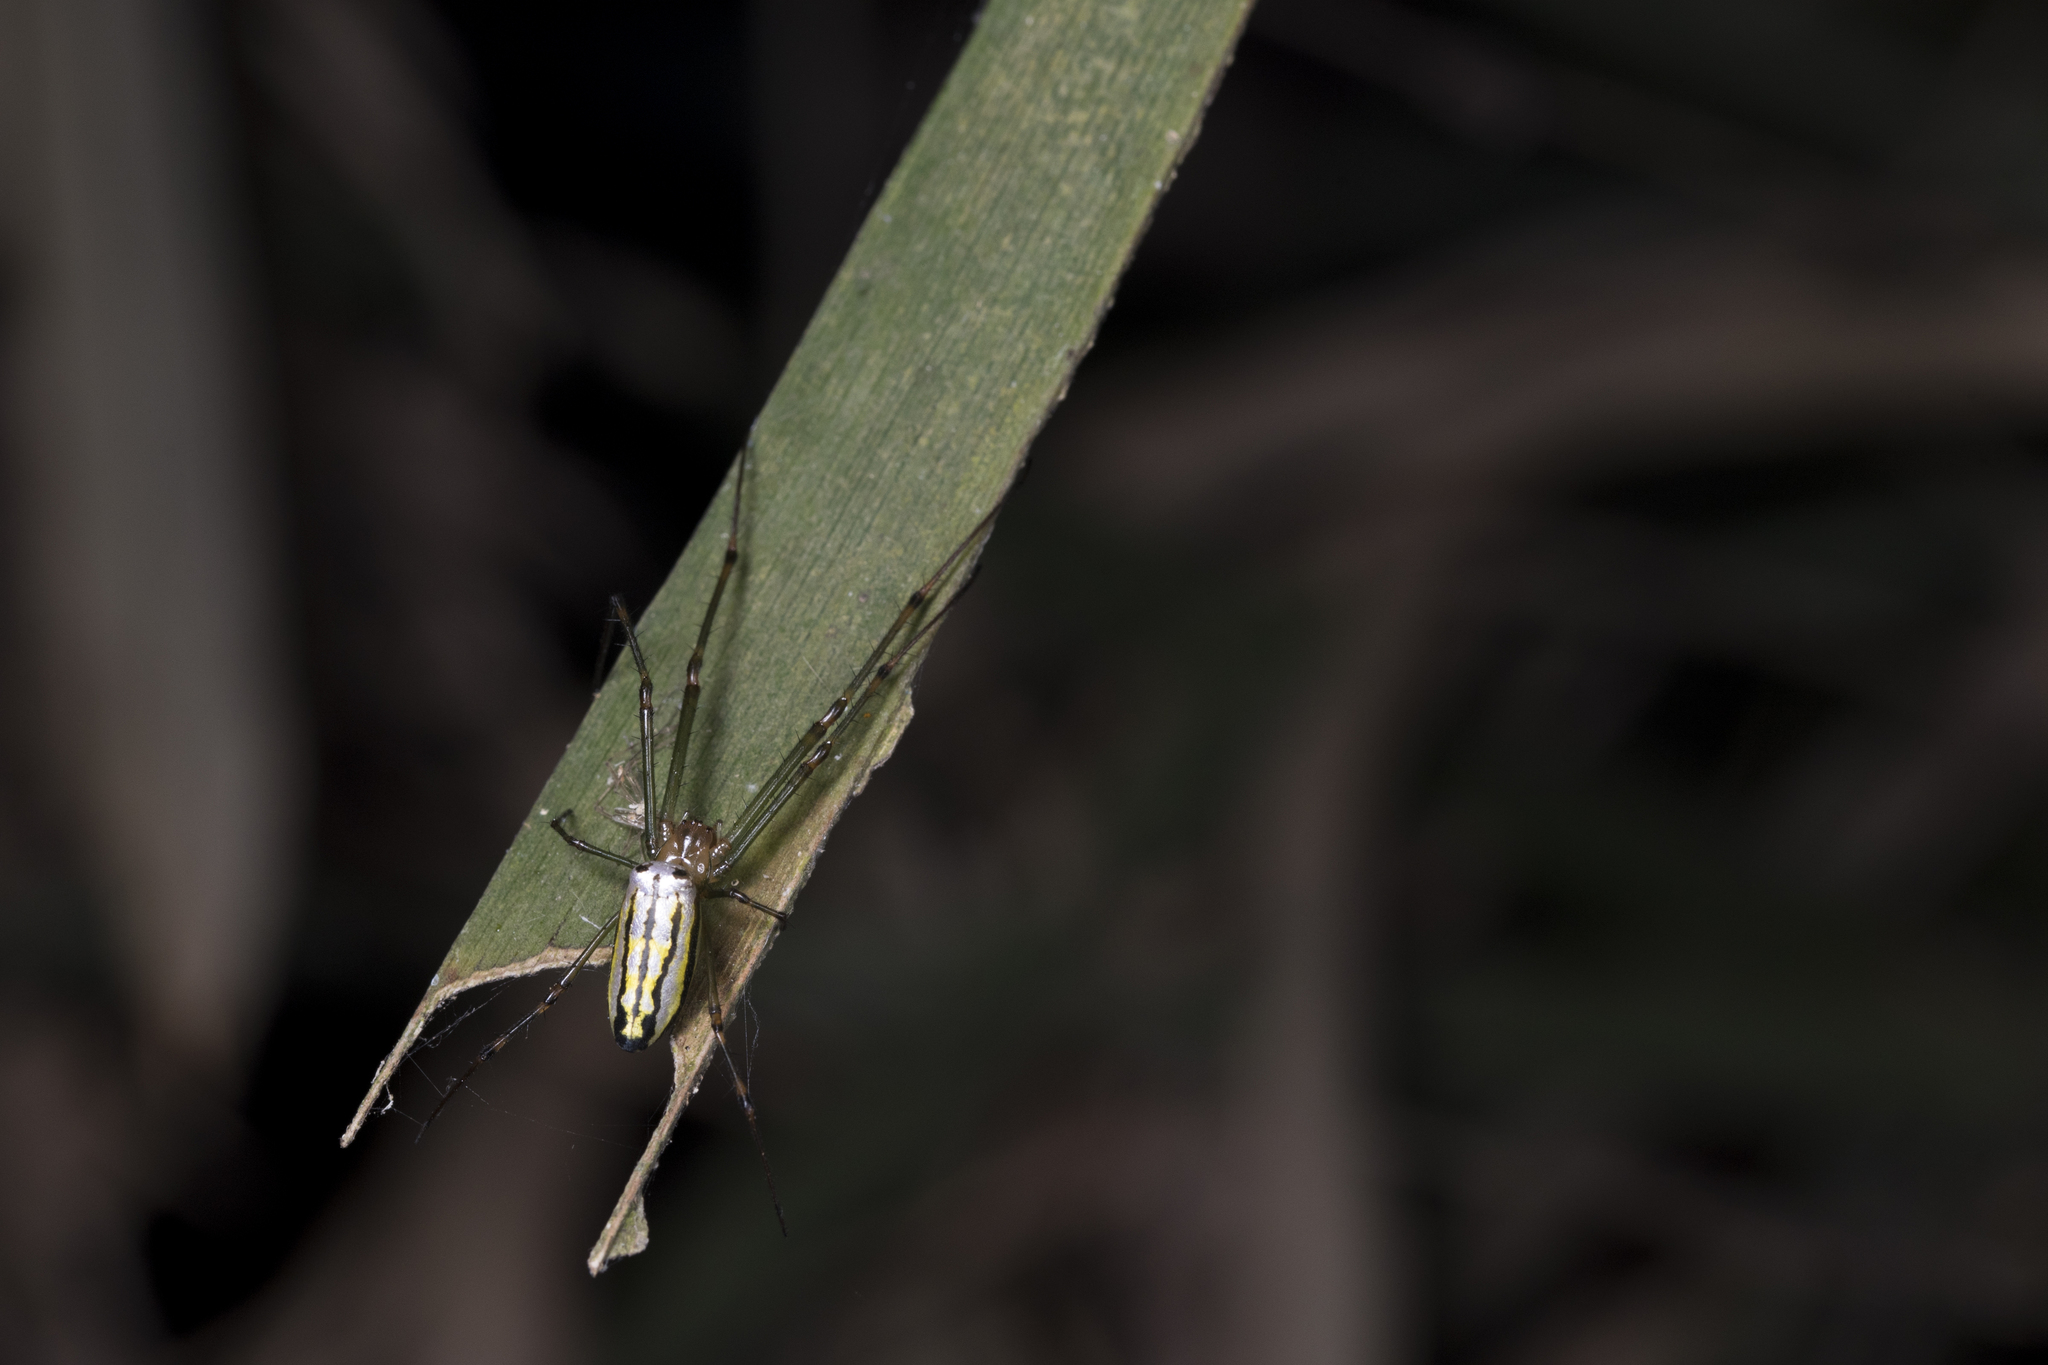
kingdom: Animalia
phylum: Arthropoda
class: Arachnida
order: Araneae
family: Tetragnathidae
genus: Leucauge
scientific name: Leucauge blanda
